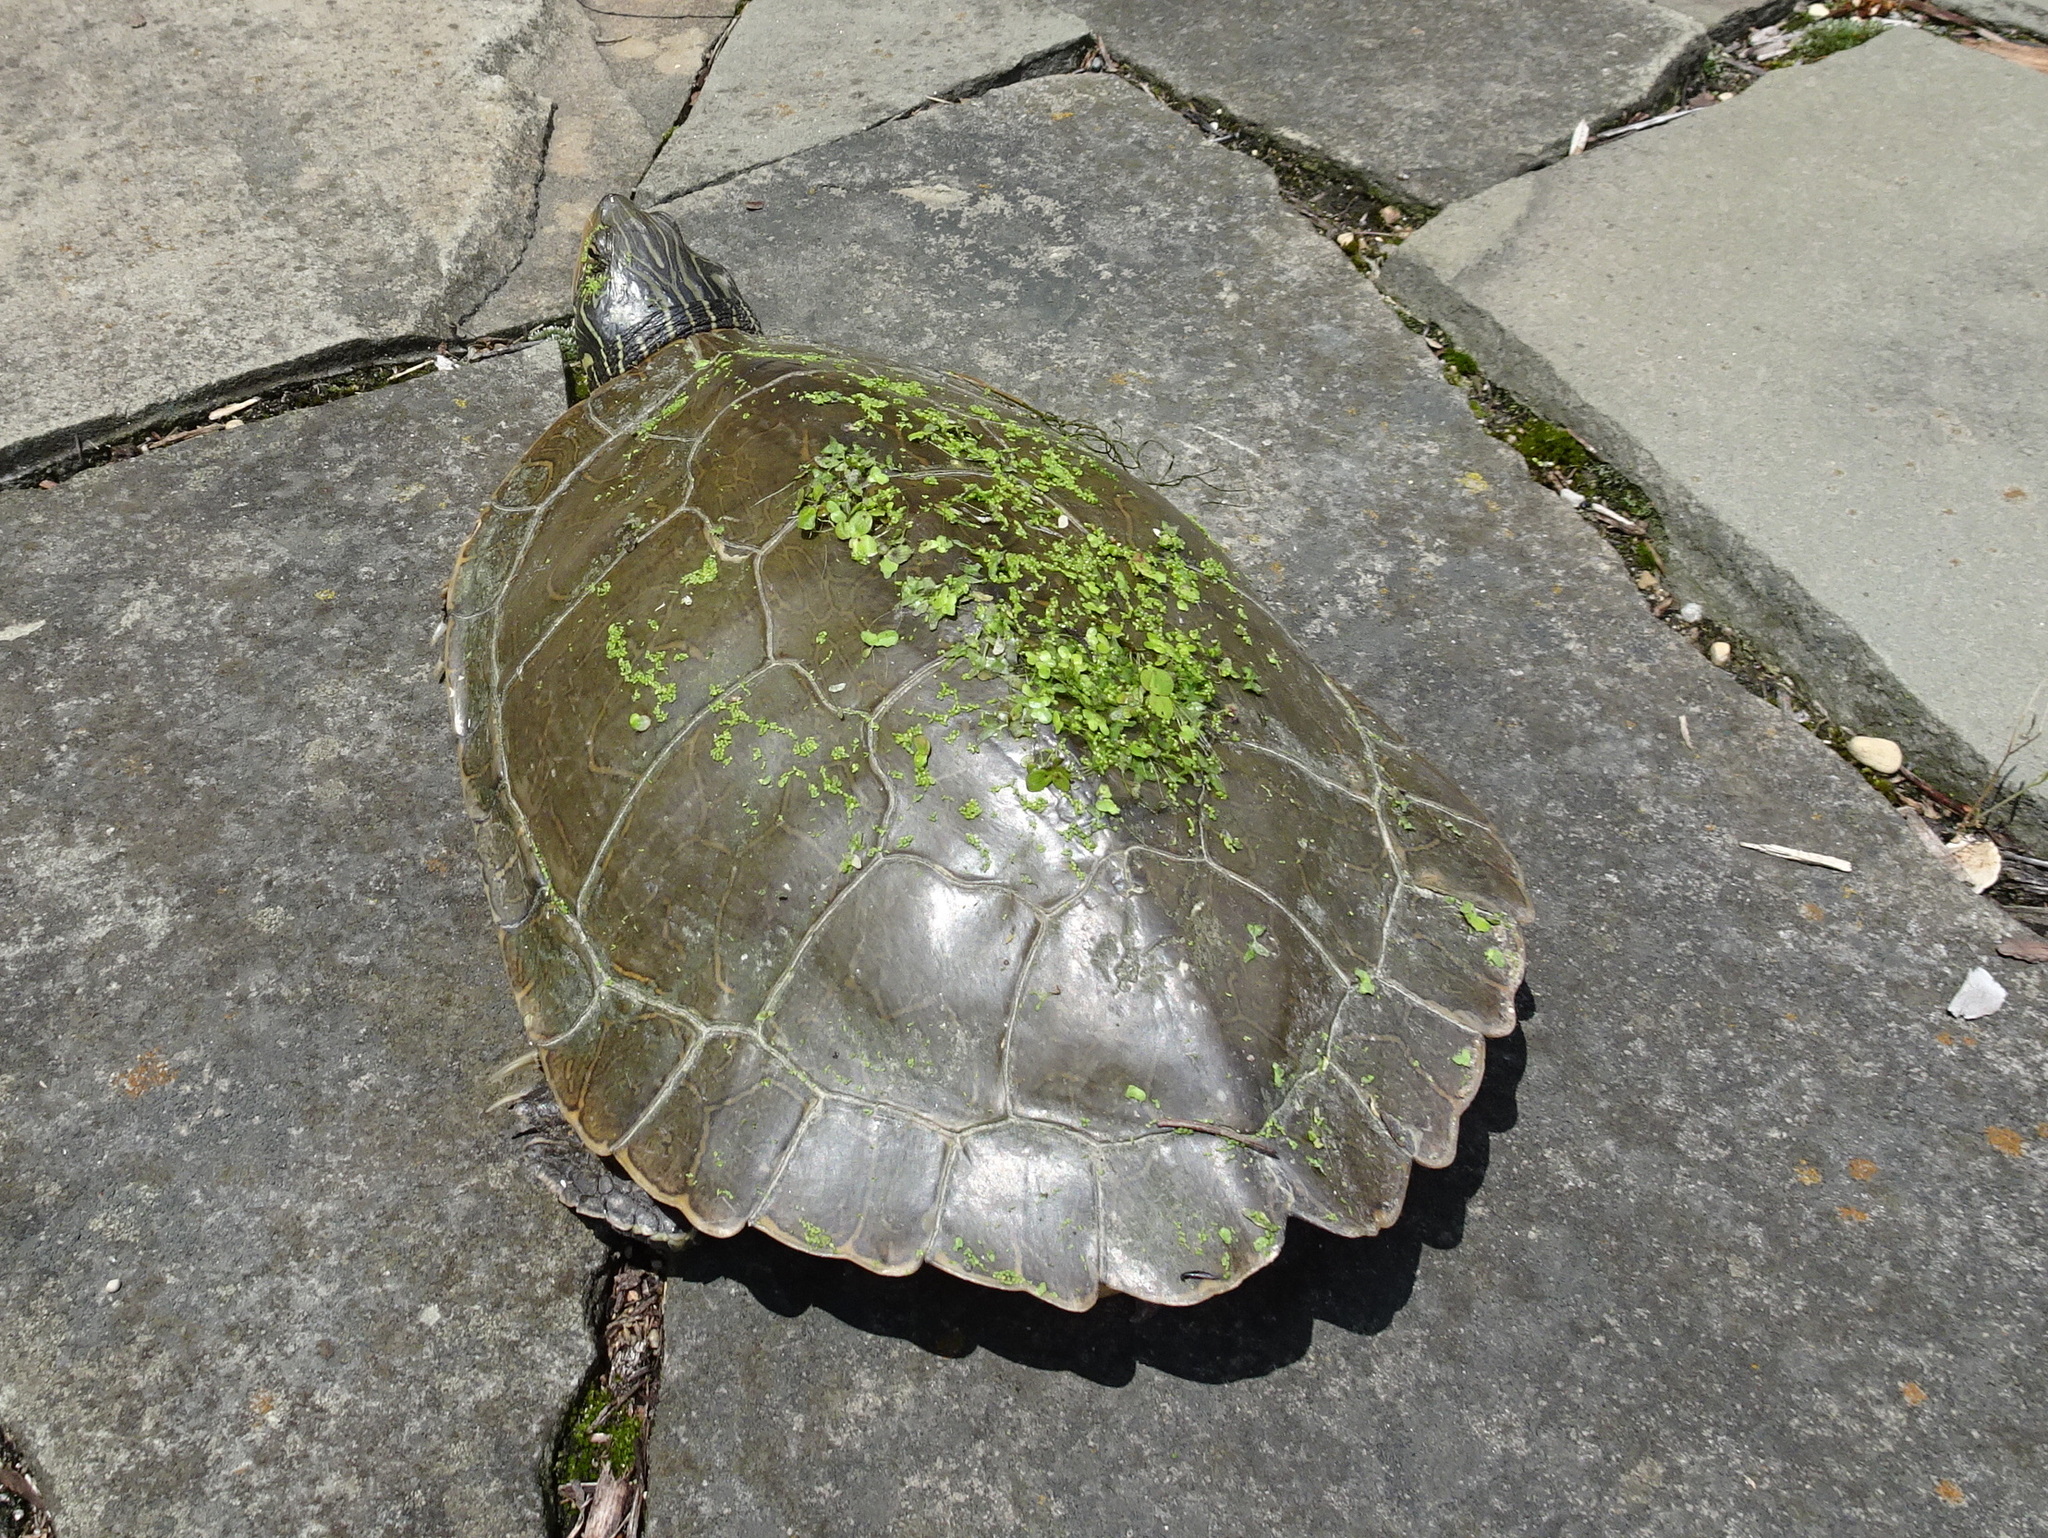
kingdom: Animalia
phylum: Chordata
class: Testudines
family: Emydidae
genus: Graptemys
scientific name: Graptemys geographica
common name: Common map turtle
